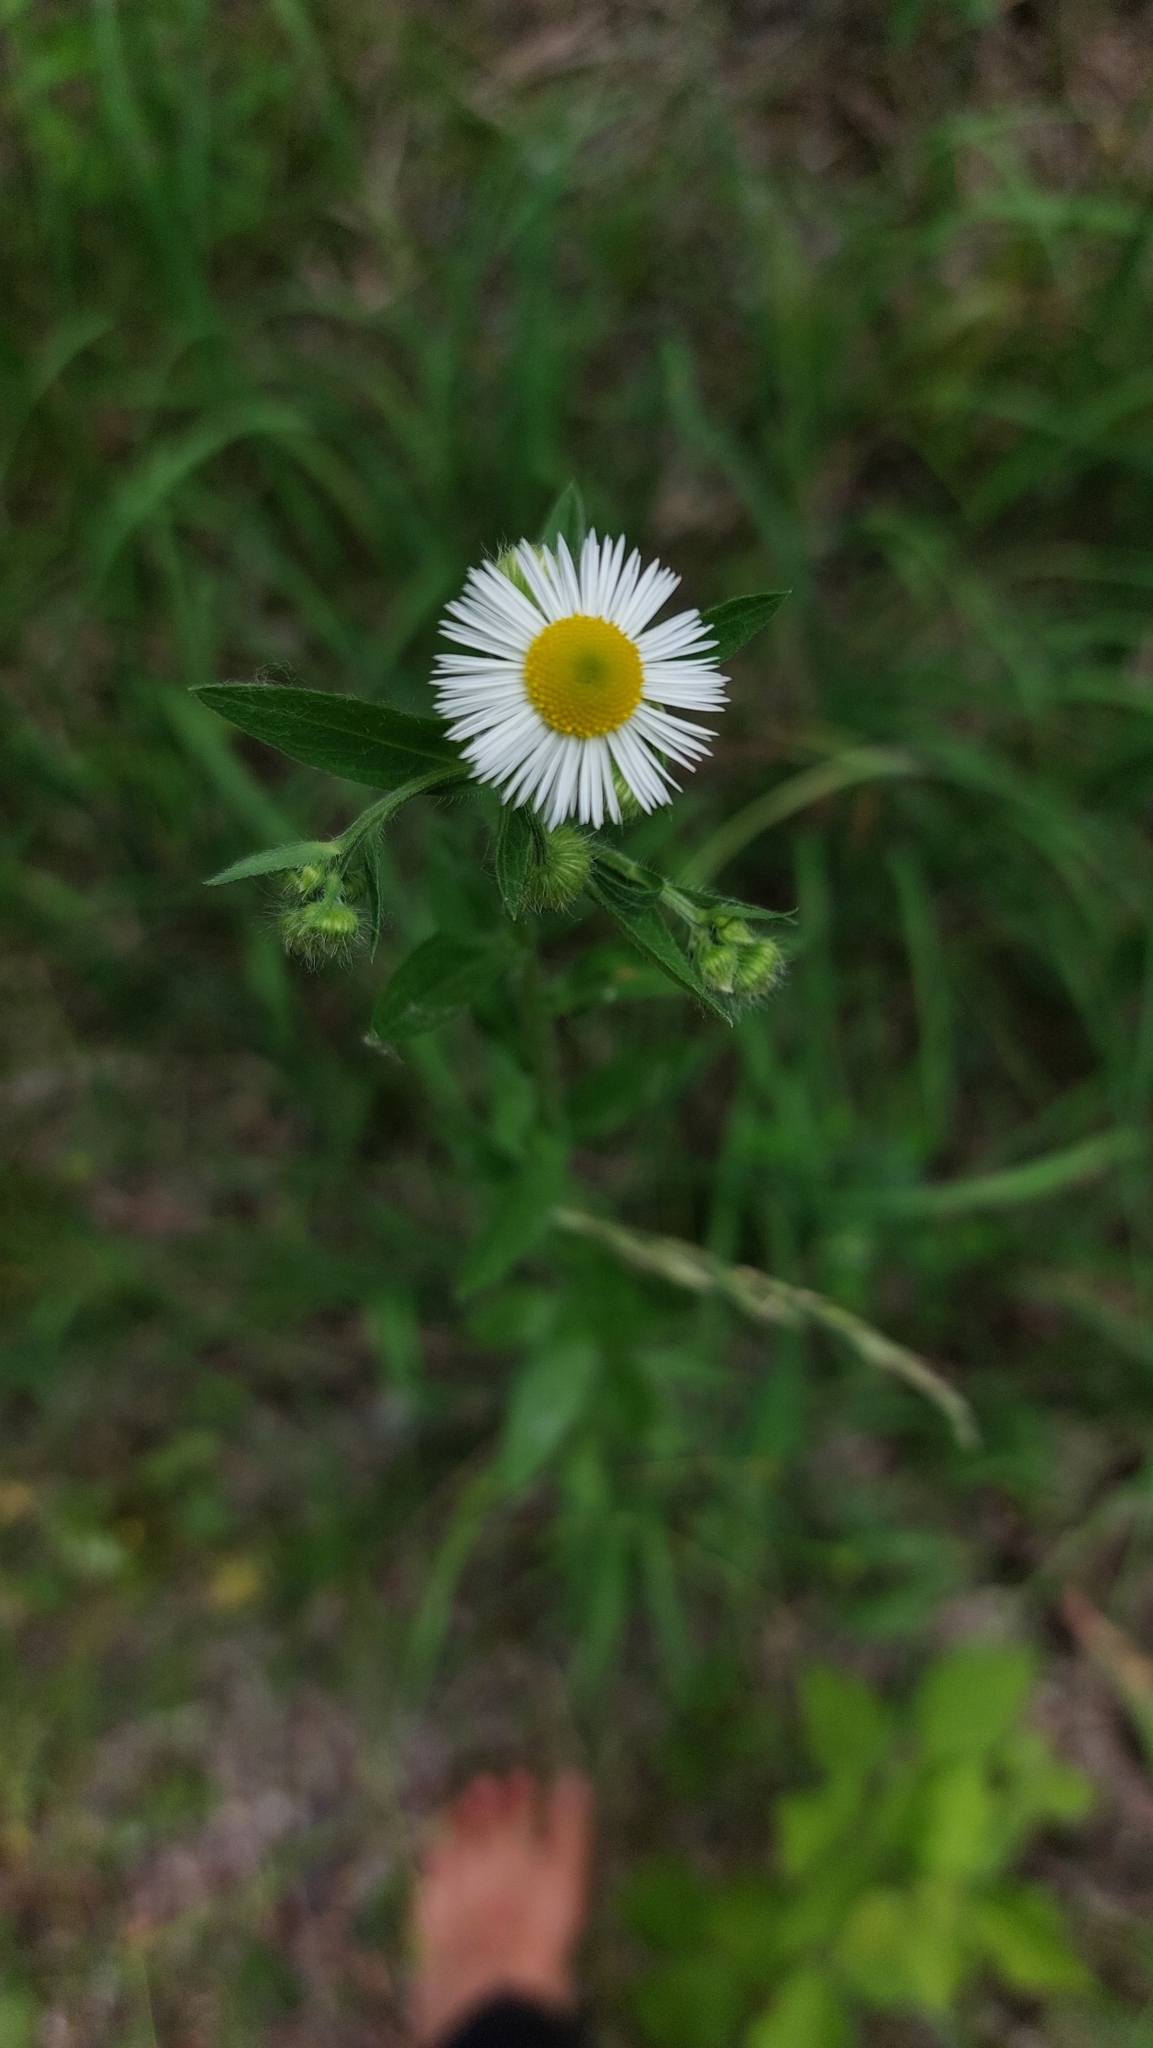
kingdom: Plantae
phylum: Tracheophyta
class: Magnoliopsida
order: Asterales
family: Asteraceae
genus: Erigeron
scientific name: Erigeron annuus
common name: Tall fleabane
